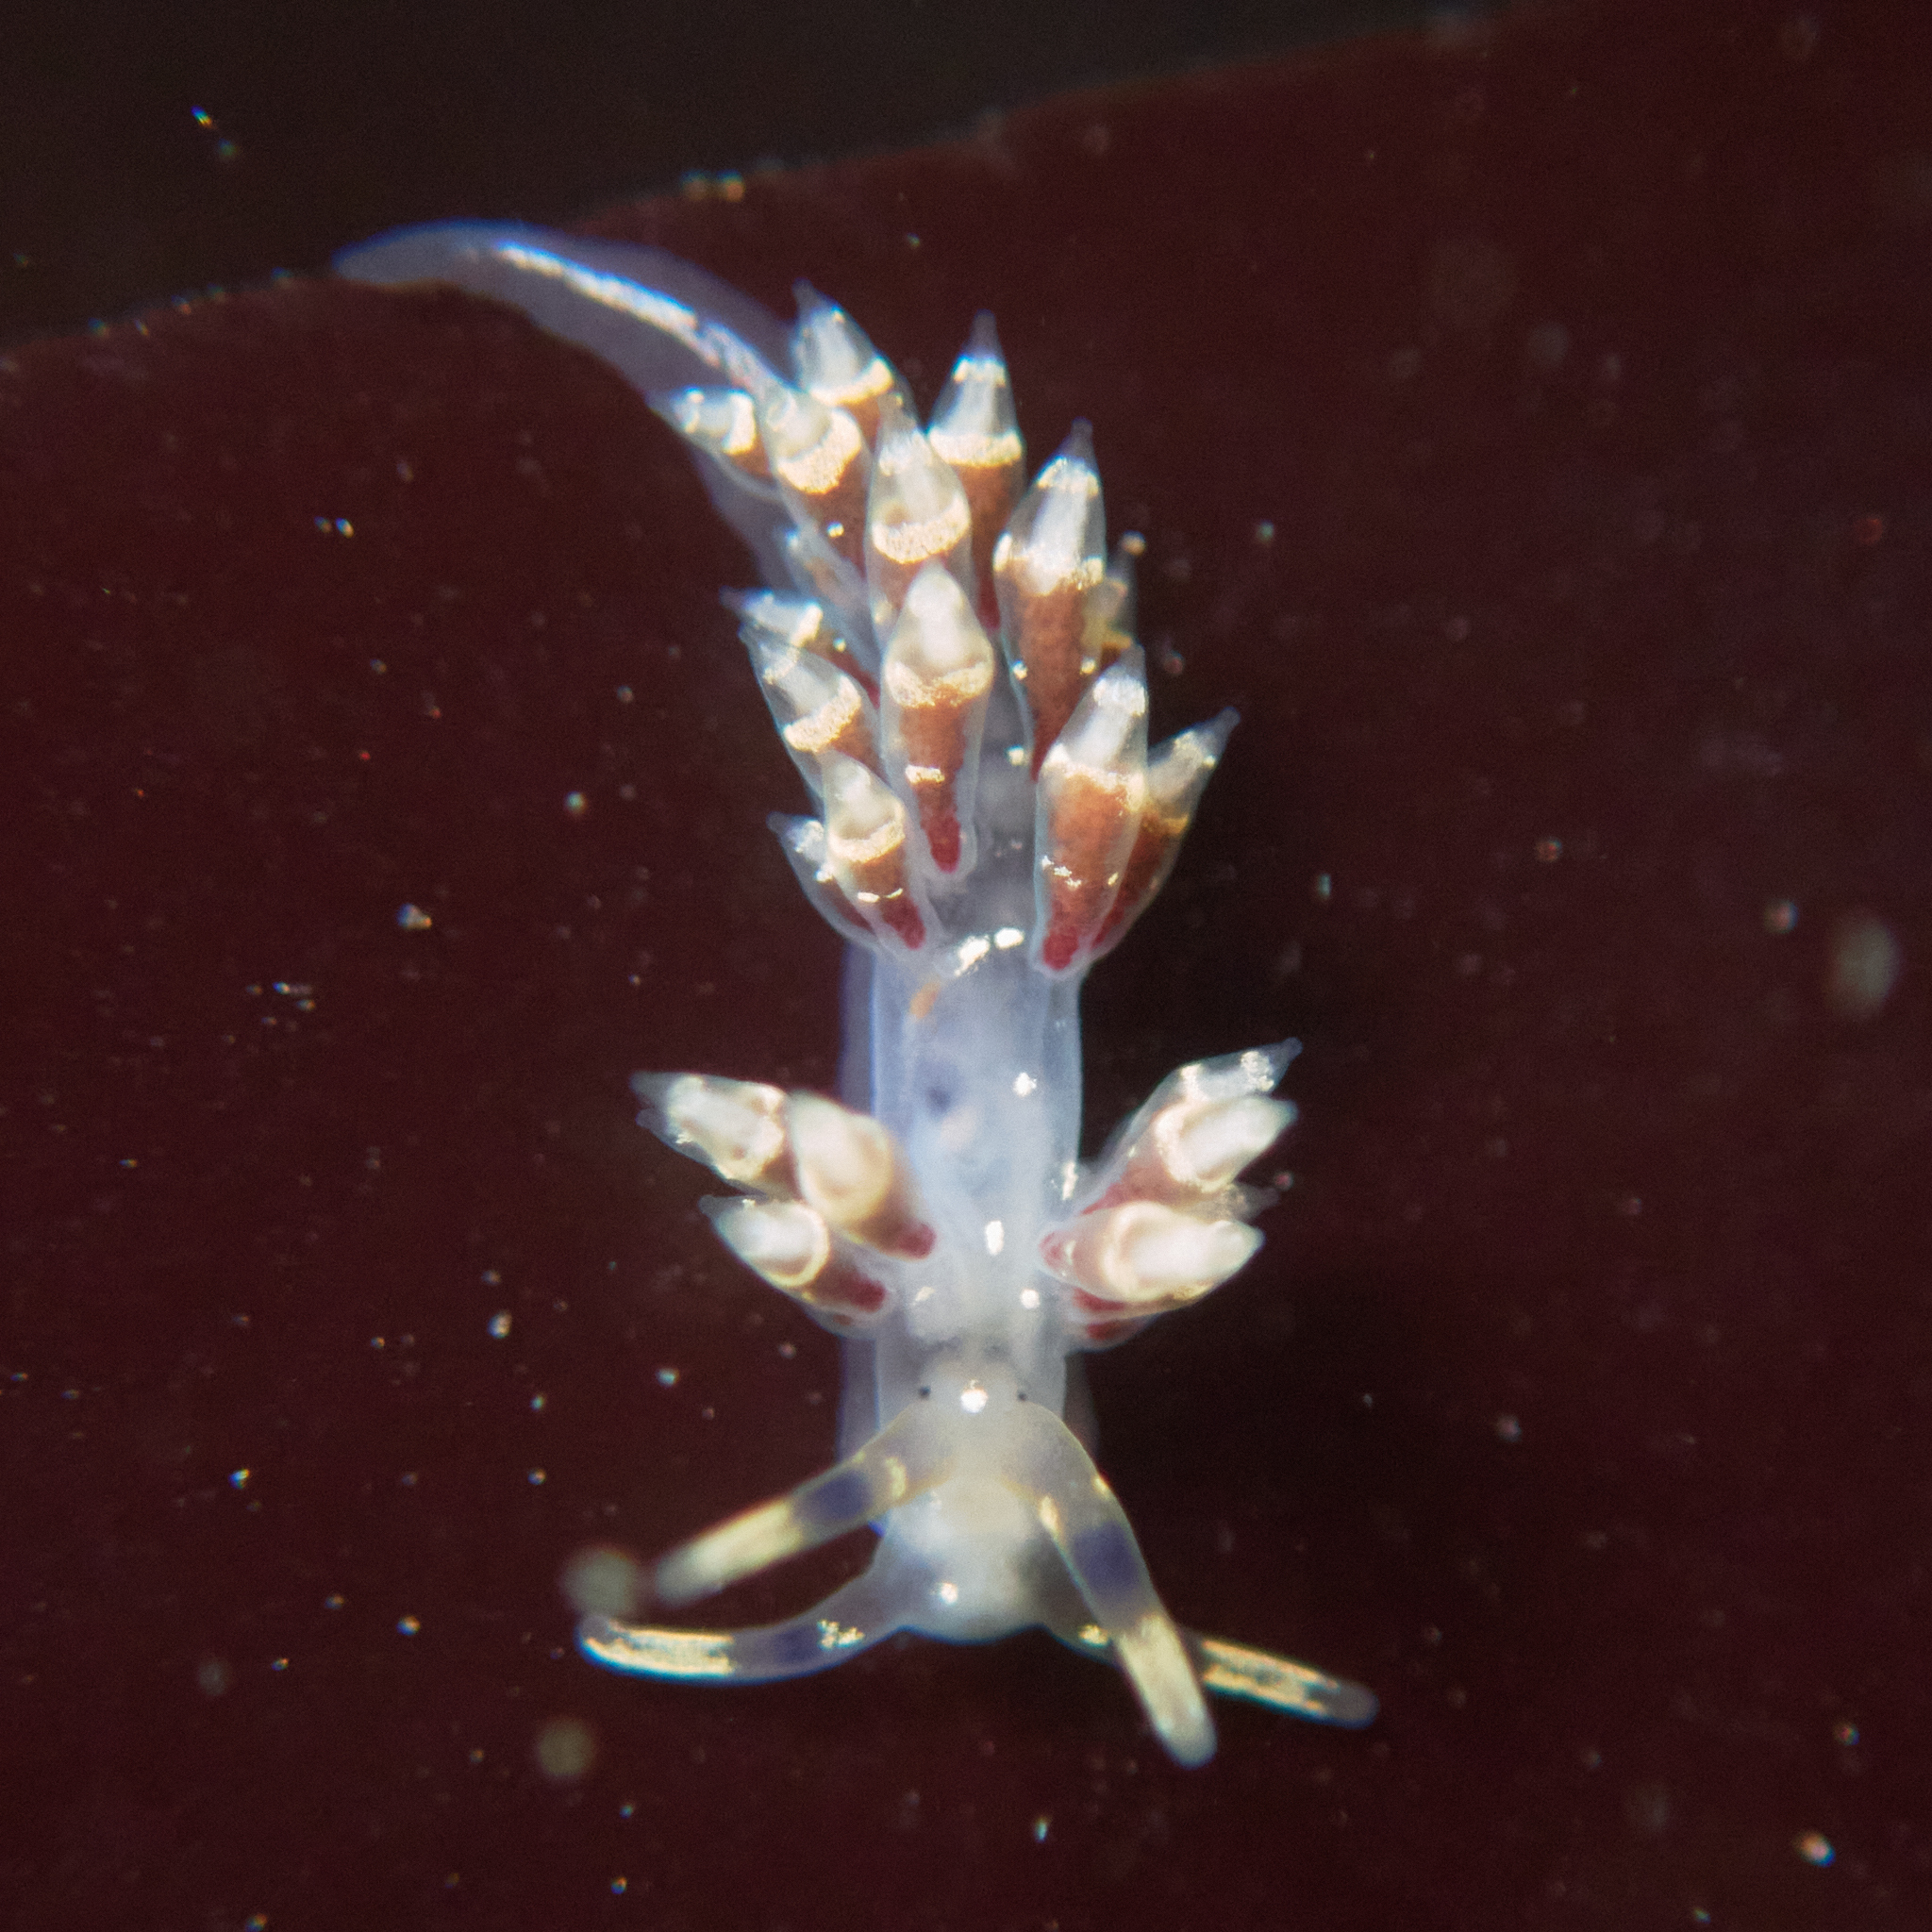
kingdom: Animalia
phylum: Mollusca
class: Gastropoda
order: Nudibranchia
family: Abronicidae
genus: Abronica
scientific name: Abronica abronia
